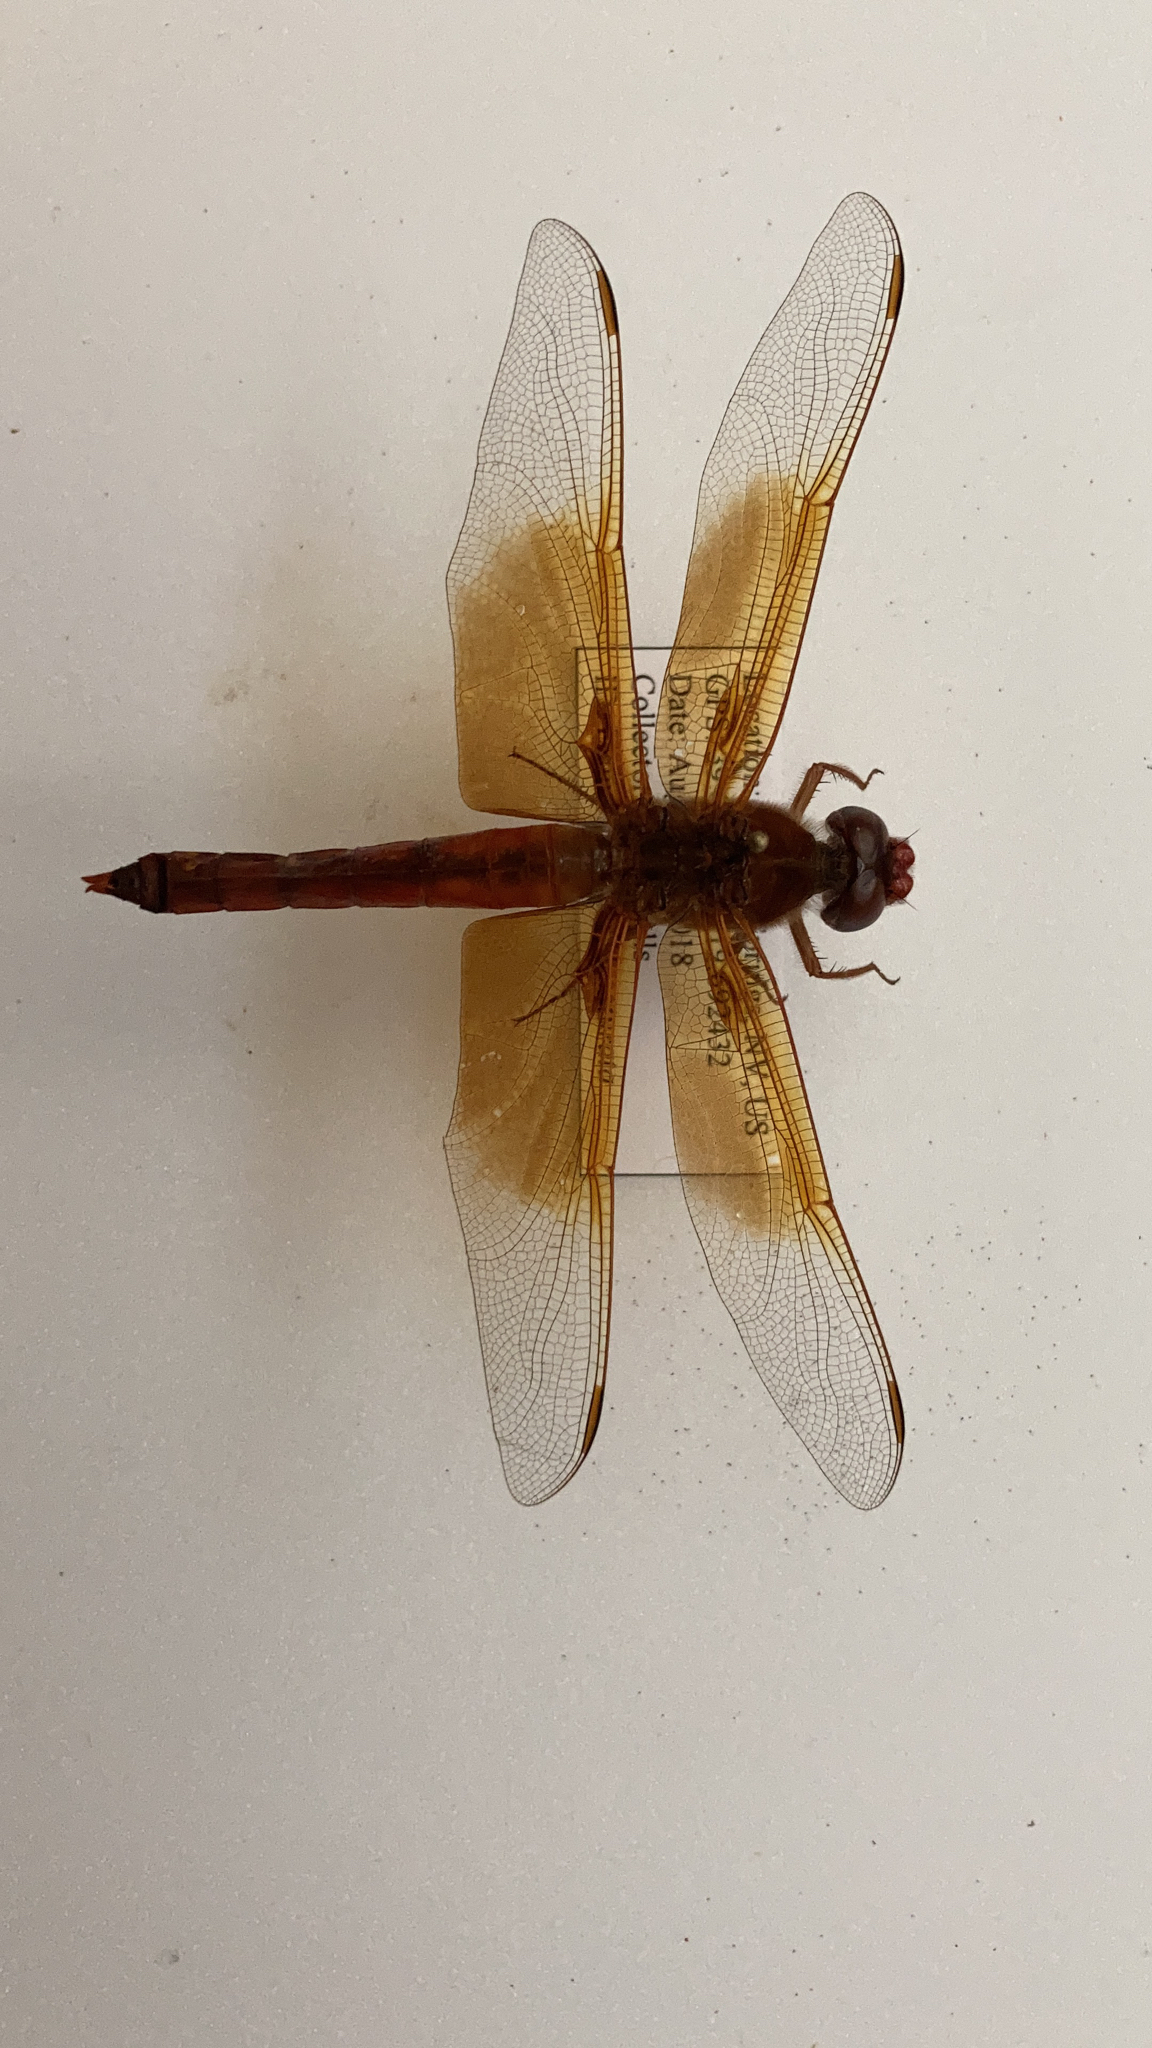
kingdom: Animalia
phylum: Arthropoda
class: Insecta
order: Odonata
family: Libellulidae
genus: Libellula
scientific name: Libellula saturata
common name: Flame skimmer
